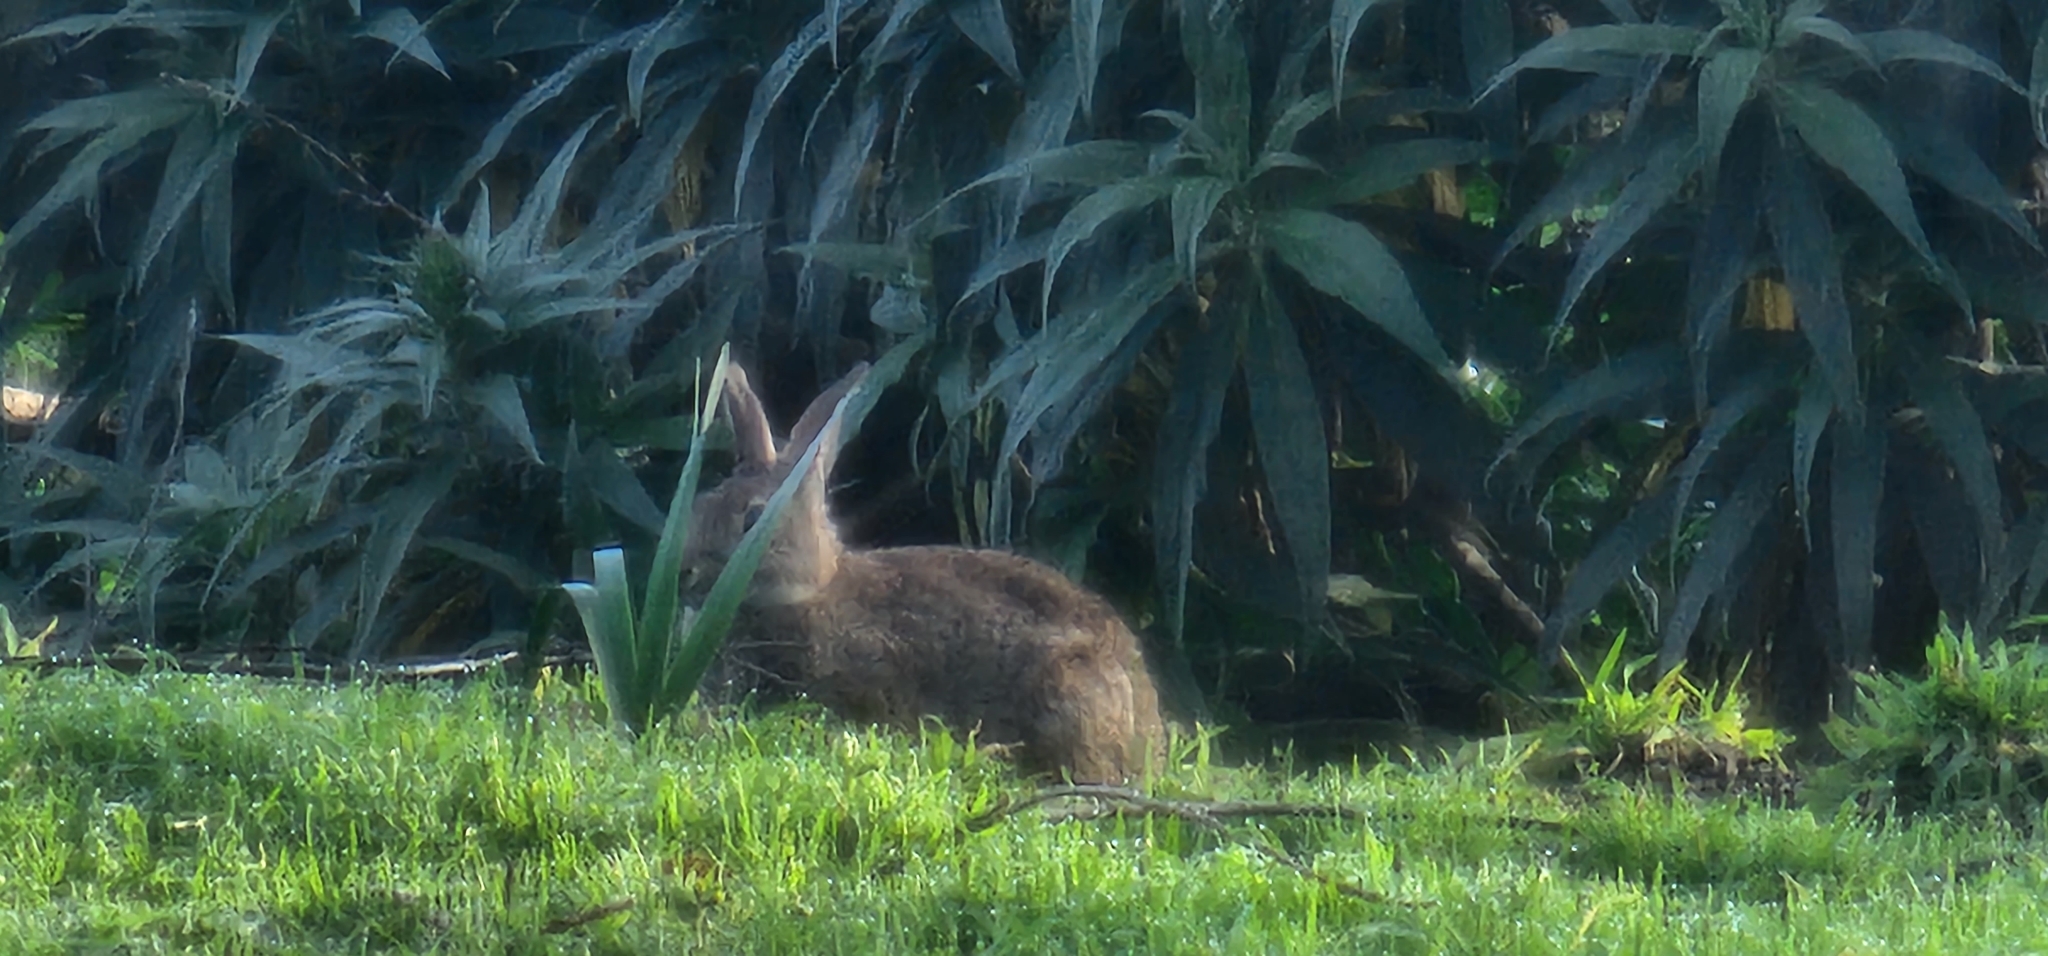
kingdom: Animalia
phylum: Chordata
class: Mammalia
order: Lagomorpha
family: Leporidae
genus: Sylvilagus
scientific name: Sylvilagus bachmani
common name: Brush rabbit
